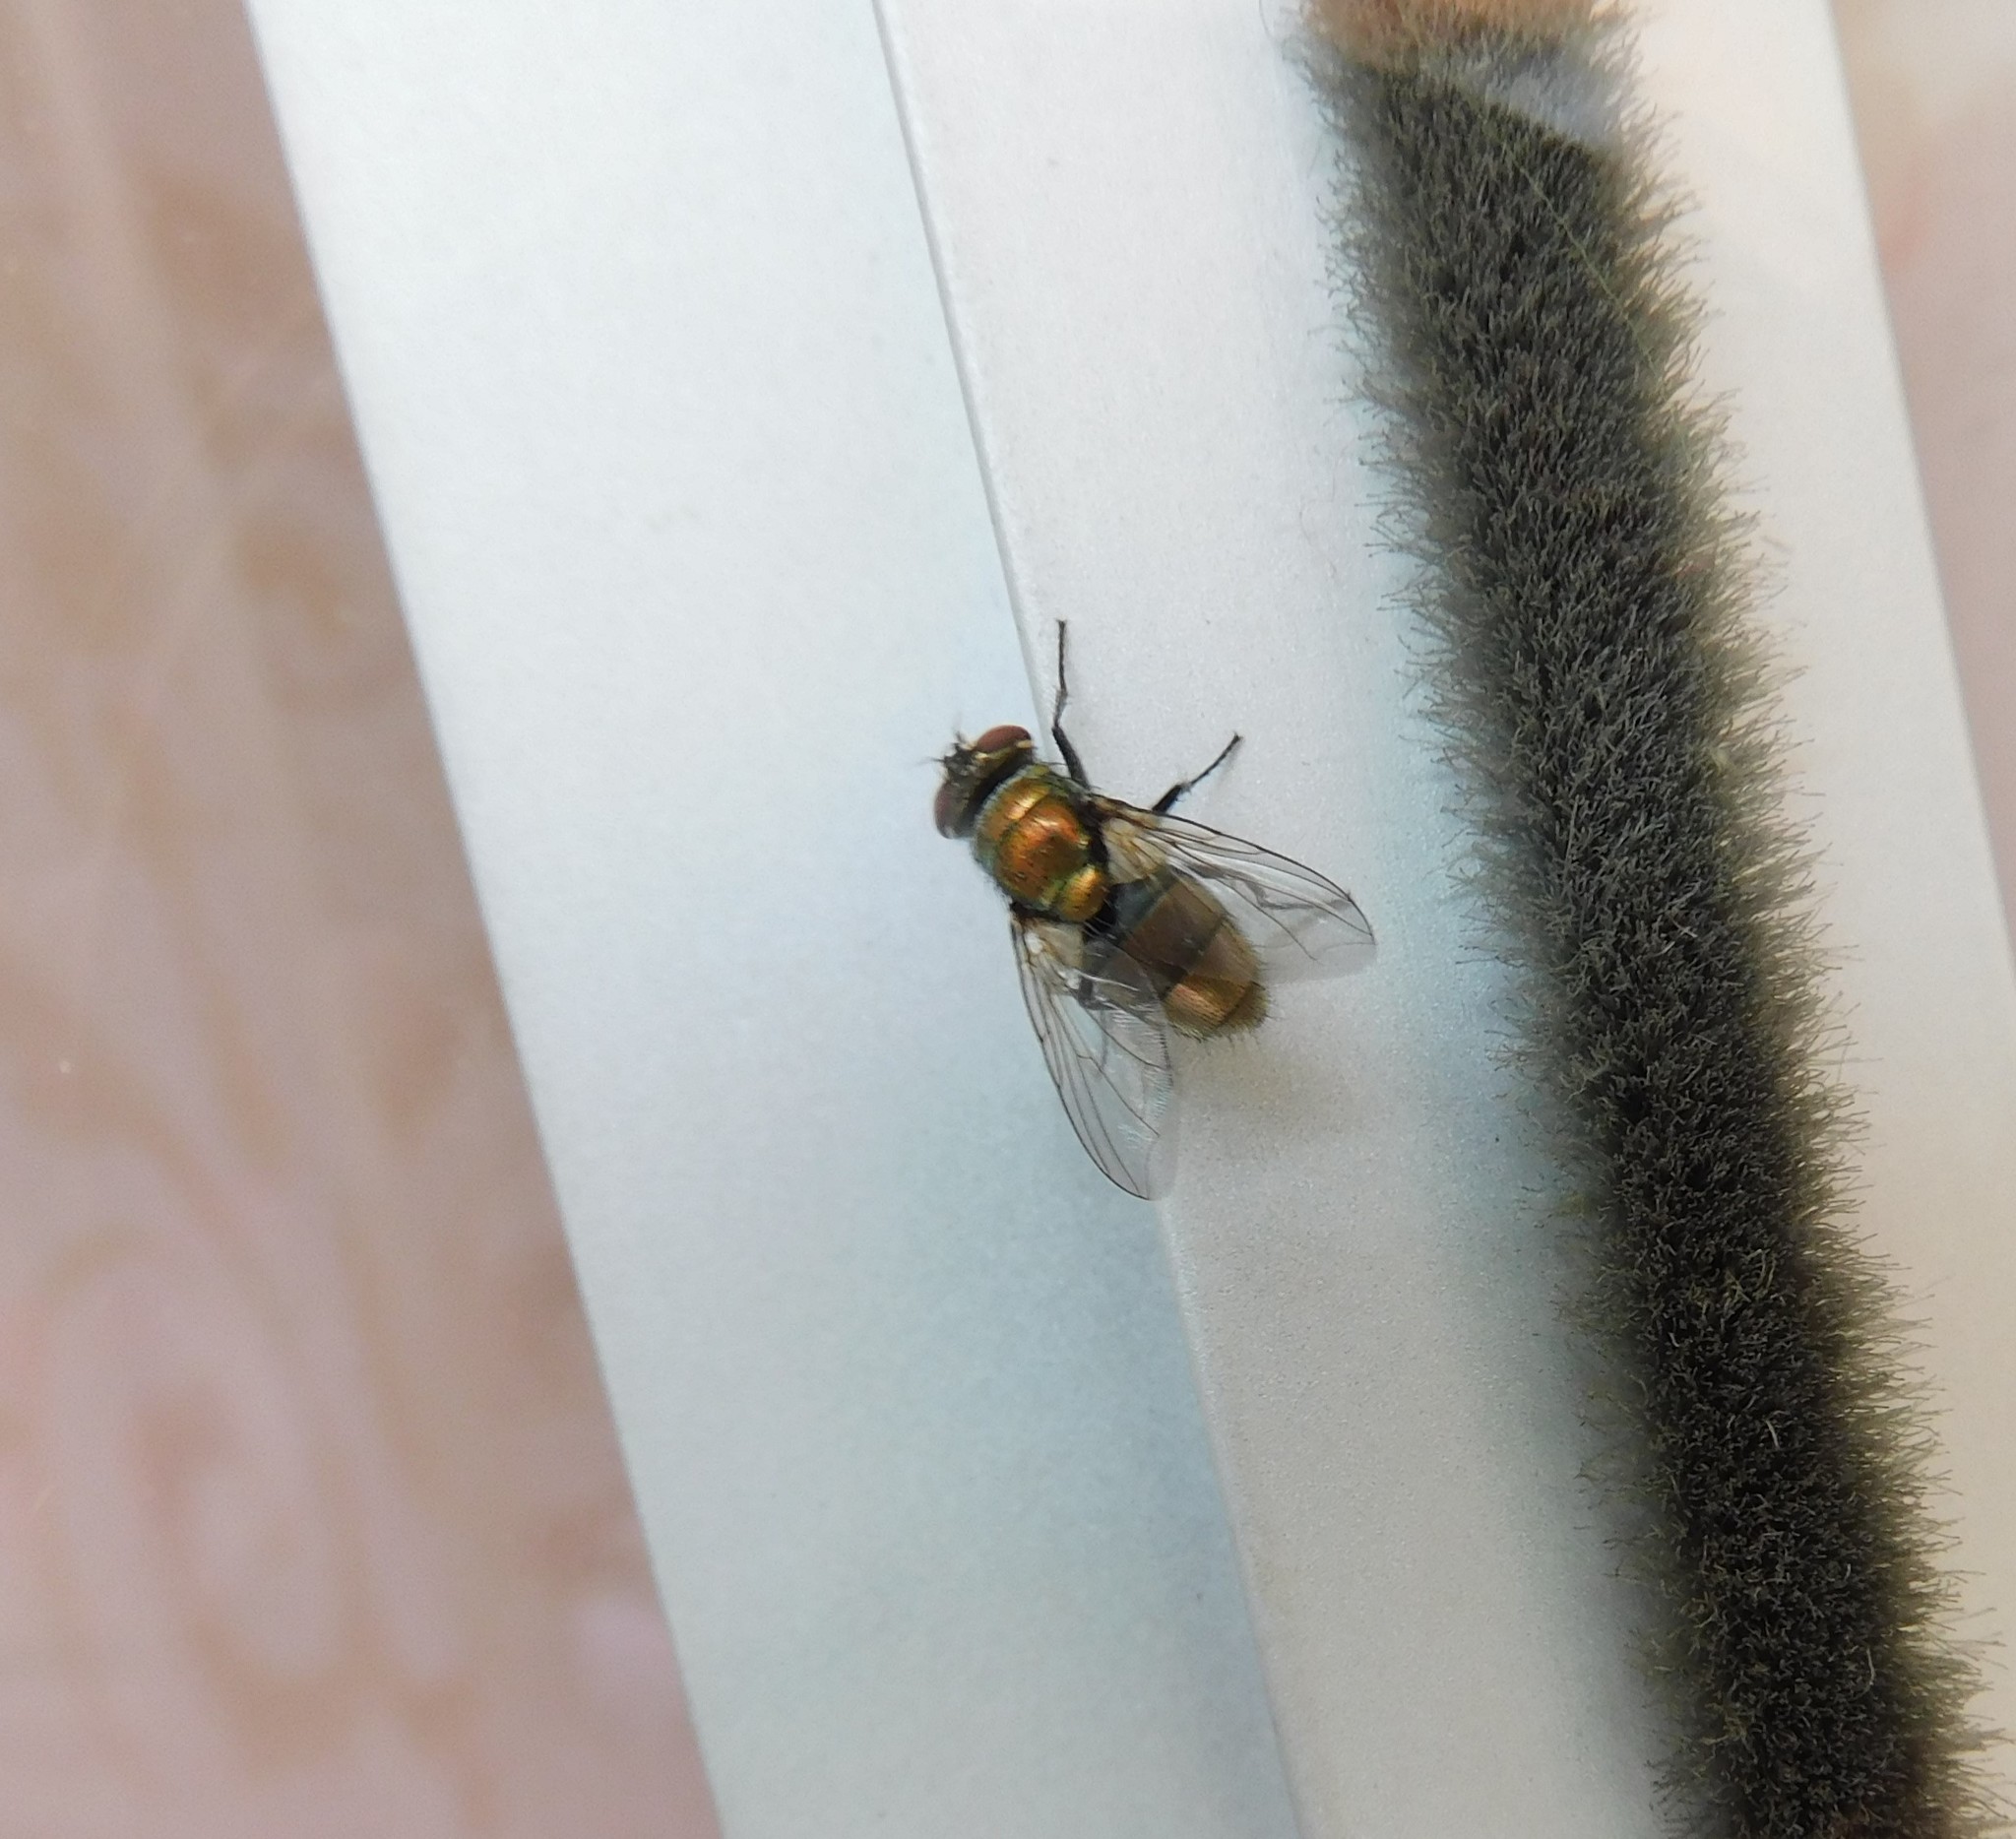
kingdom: Animalia
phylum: Arthropoda
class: Insecta
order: Diptera
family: Calliphoridae
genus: Lucilia
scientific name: Lucilia cuprina
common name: Sheep blow fly
